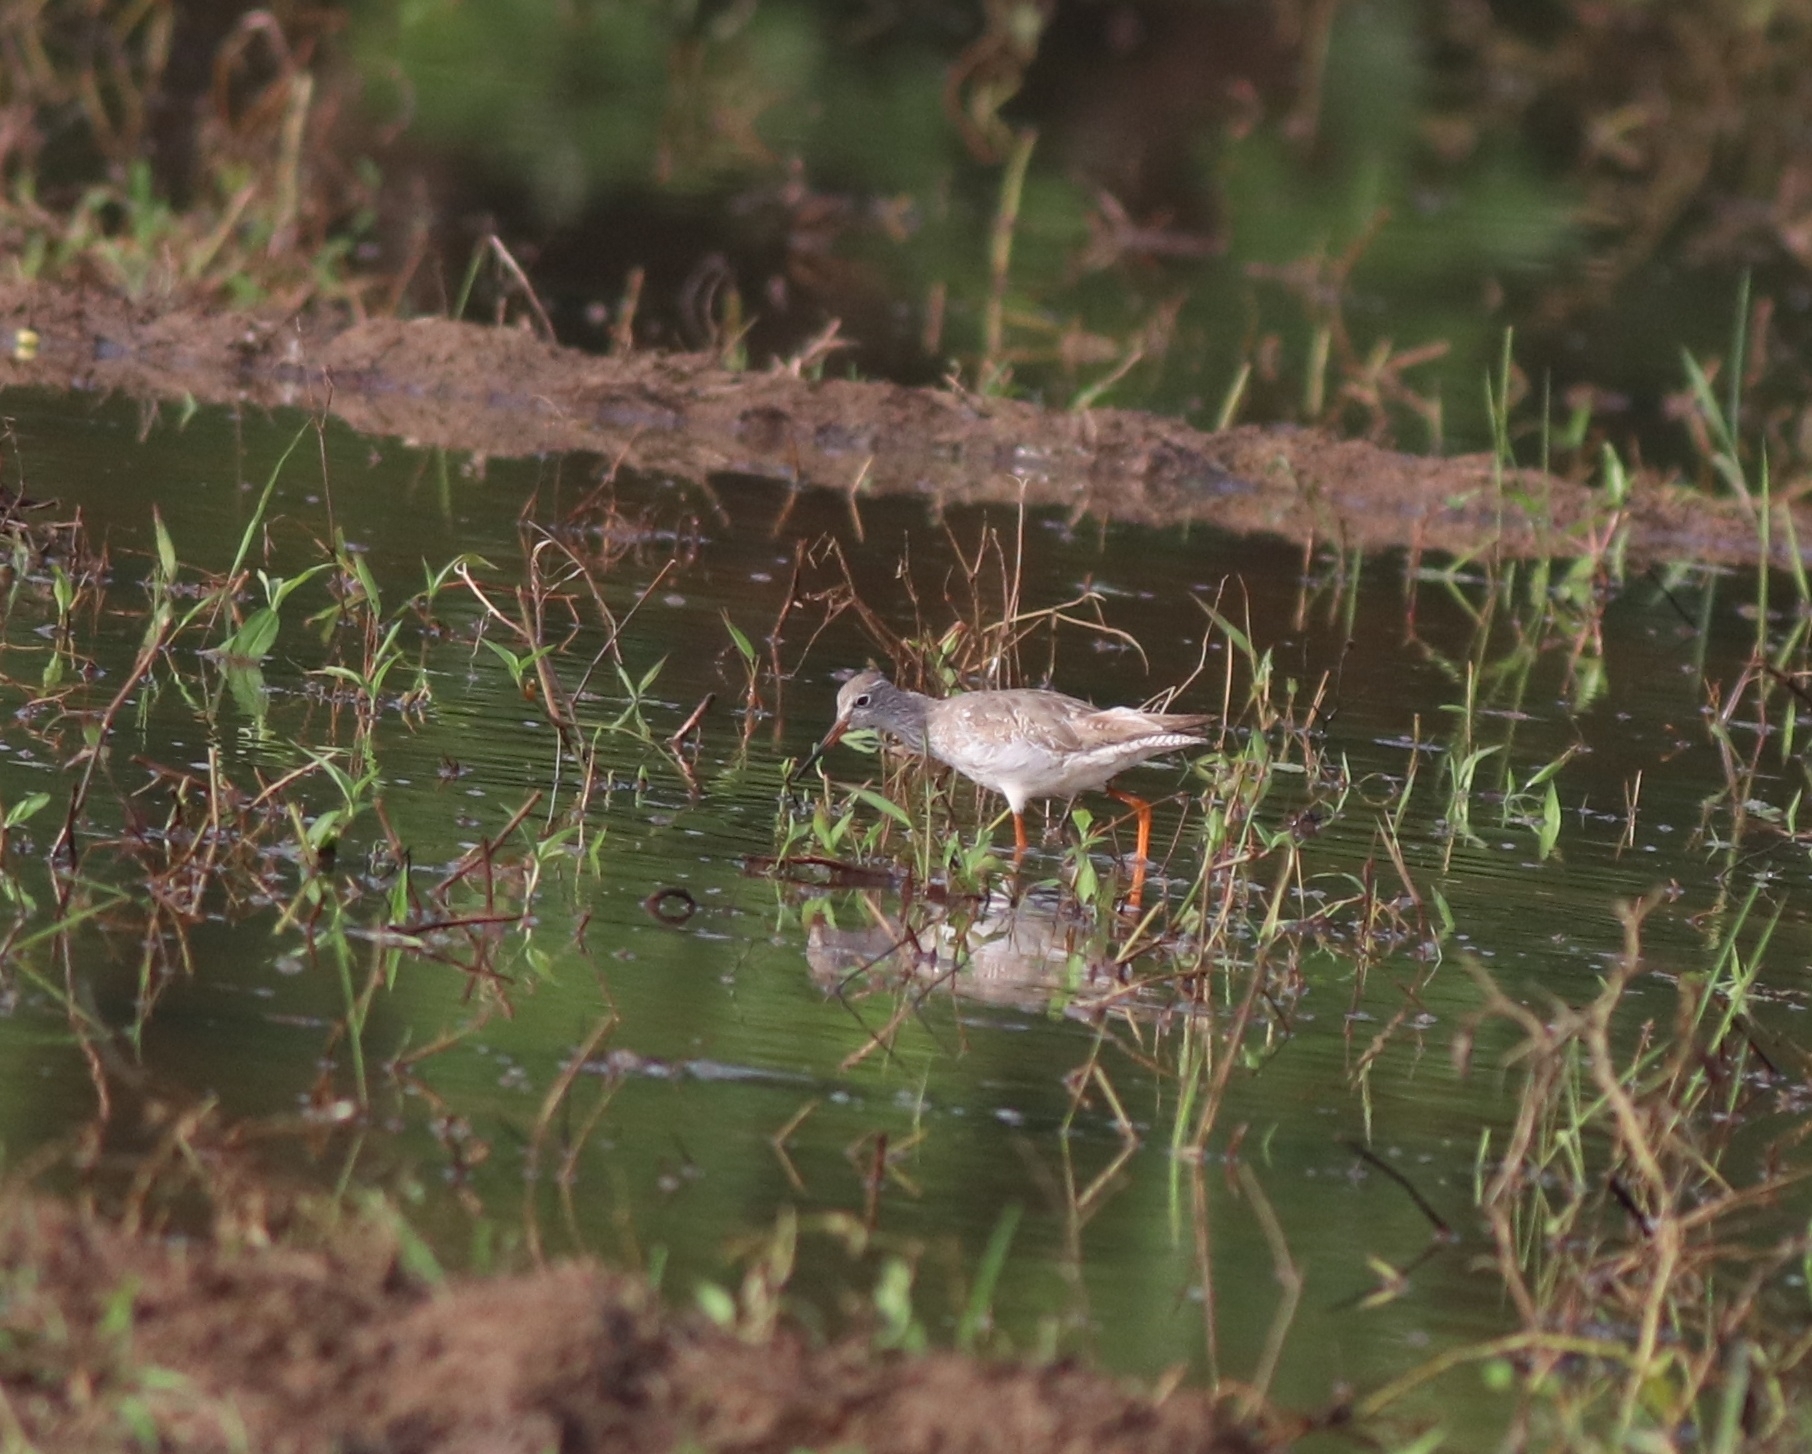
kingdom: Animalia
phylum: Chordata
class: Aves
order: Charadriiformes
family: Scolopacidae
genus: Tringa
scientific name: Tringa totanus
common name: Common redshank
